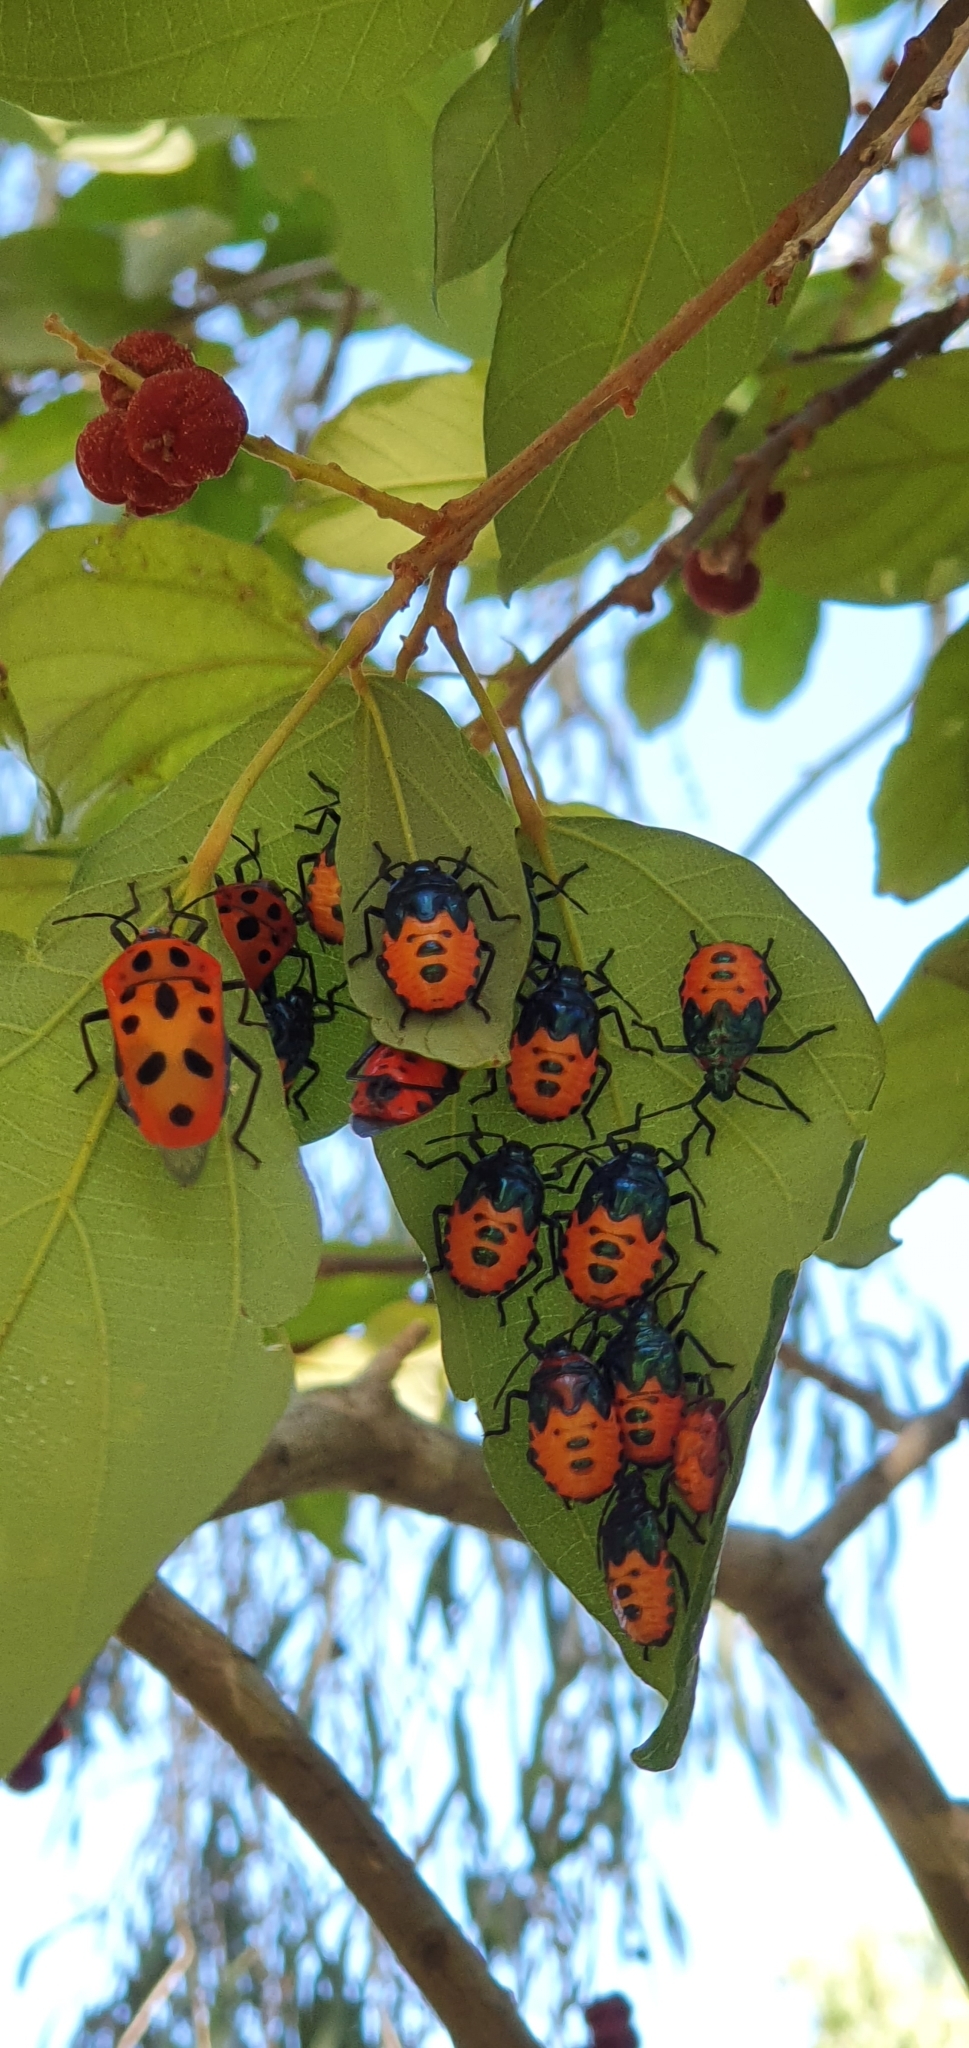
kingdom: Animalia
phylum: Arthropoda
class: Insecta
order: Hemiptera
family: Scutelleridae
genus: Cantao
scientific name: Cantao
